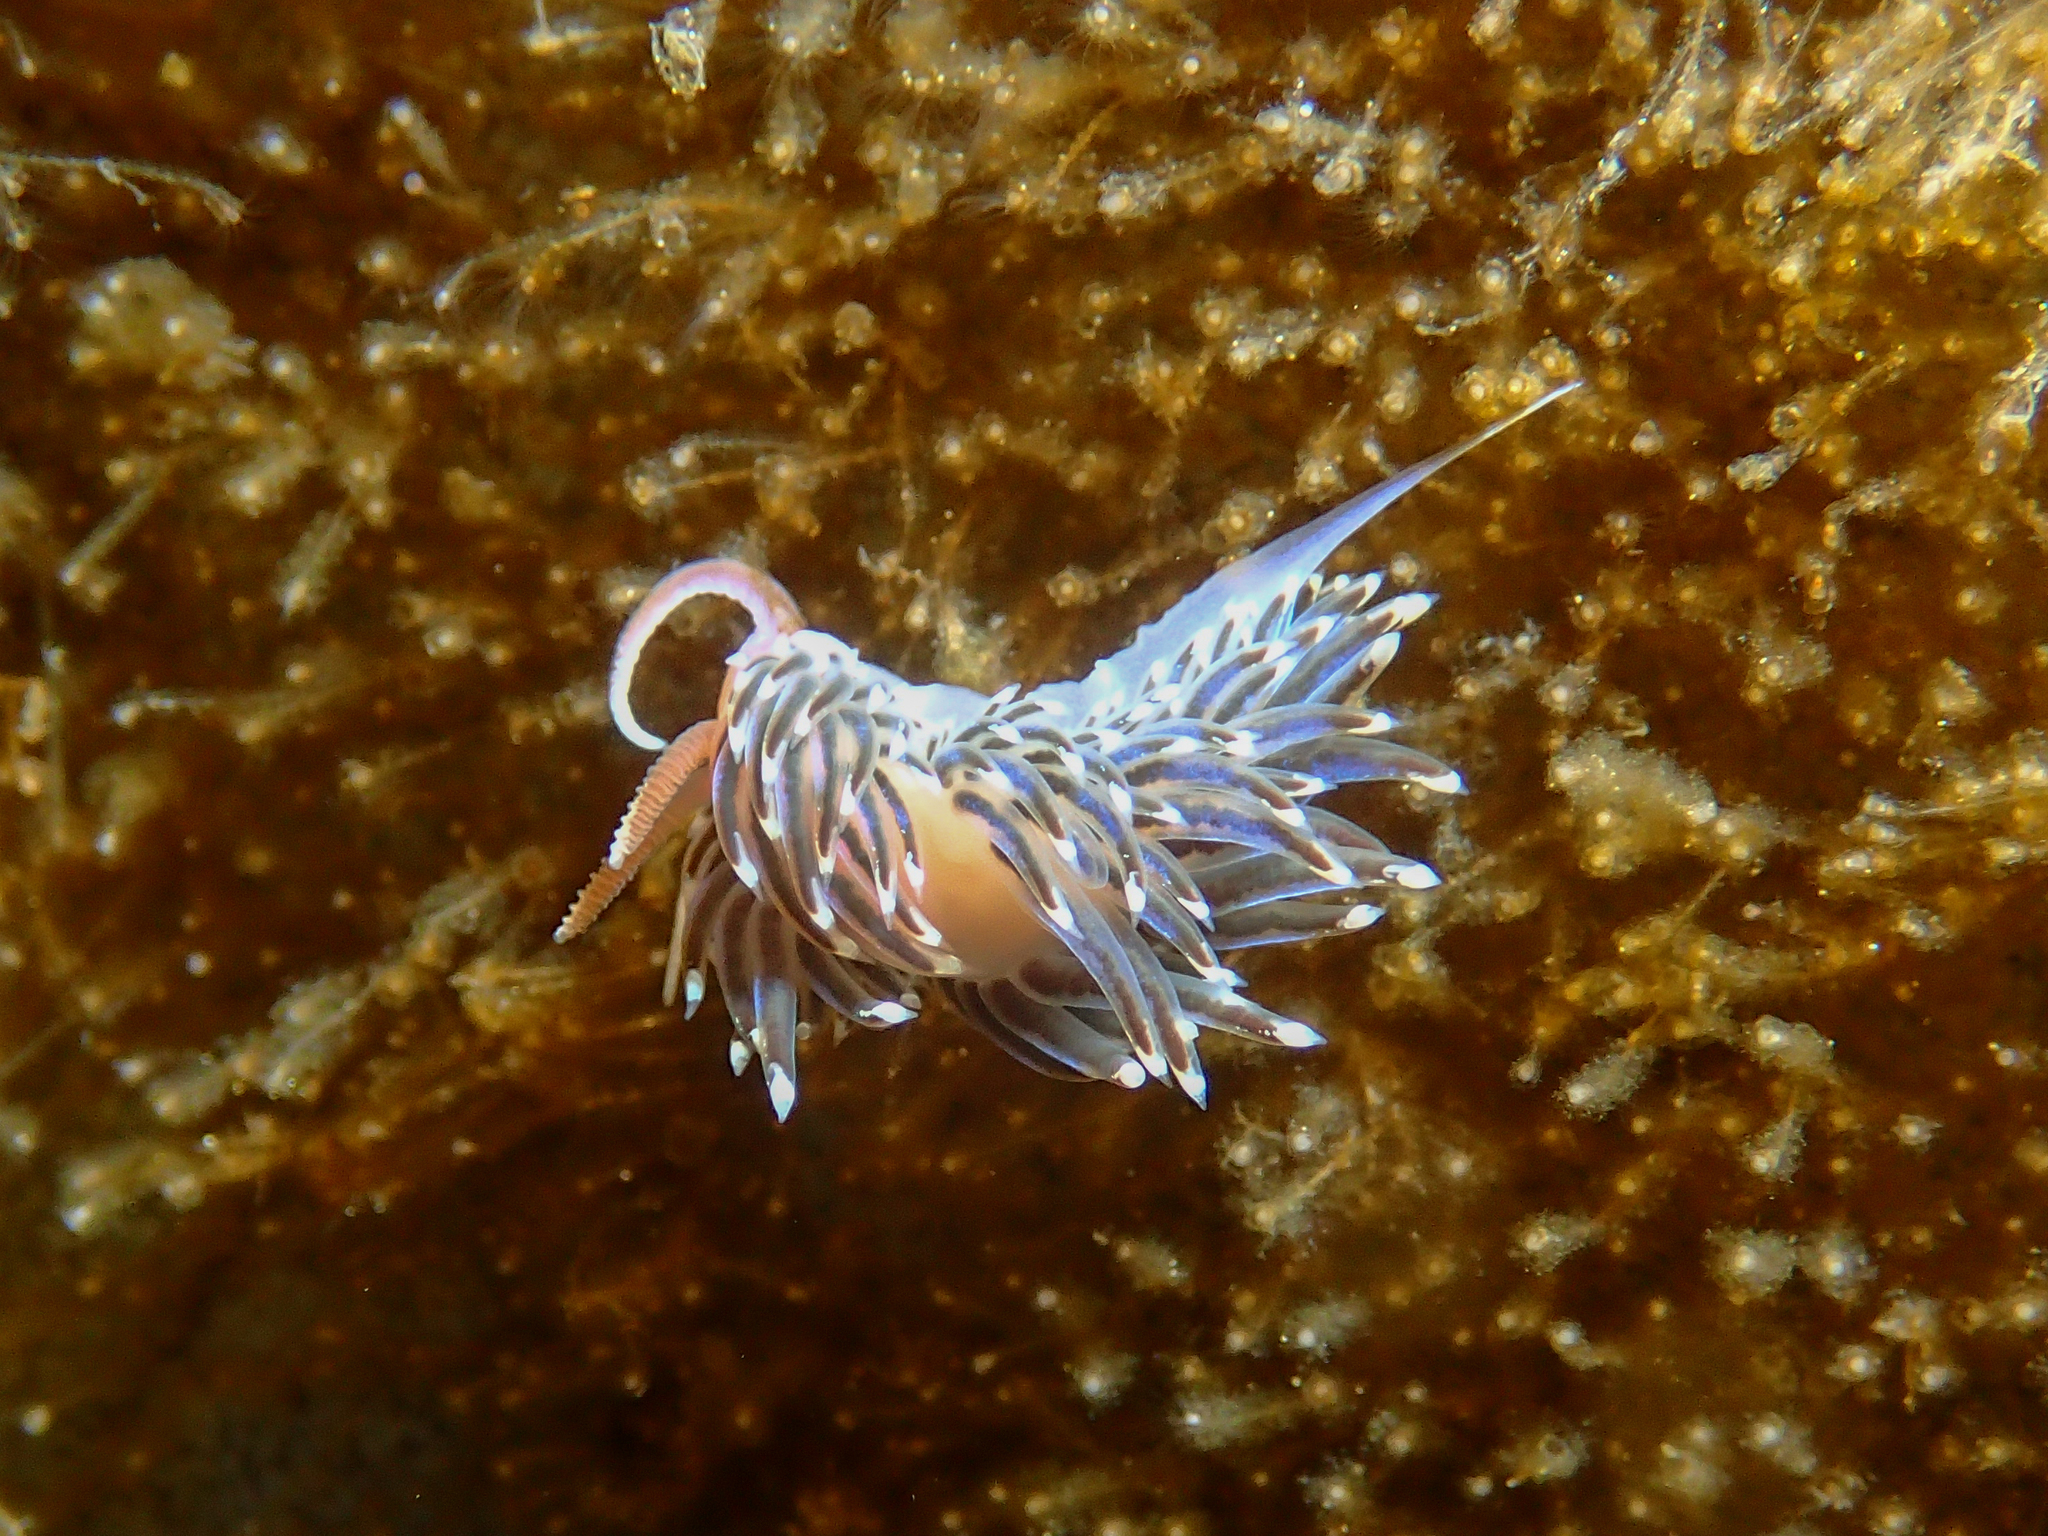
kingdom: Animalia
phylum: Mollusca
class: Gastropoda
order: Nudibranchia
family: Facelinidae
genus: Facelina
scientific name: Facelina auriculata
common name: Slender facelina
